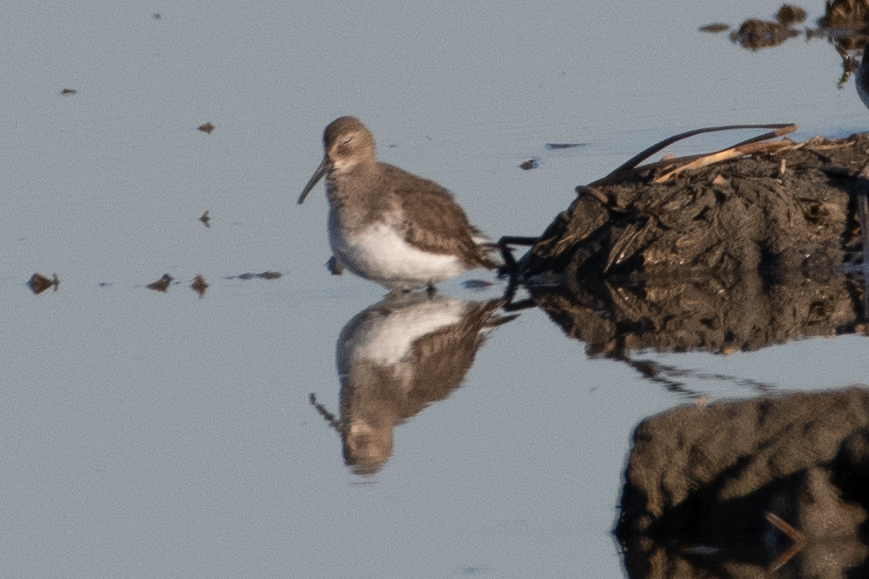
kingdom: Animalia
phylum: Chordata
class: Aves
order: Charadriiformes
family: Scolopacidae
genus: Calidris
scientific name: Calidris alpina
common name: Dunlin
